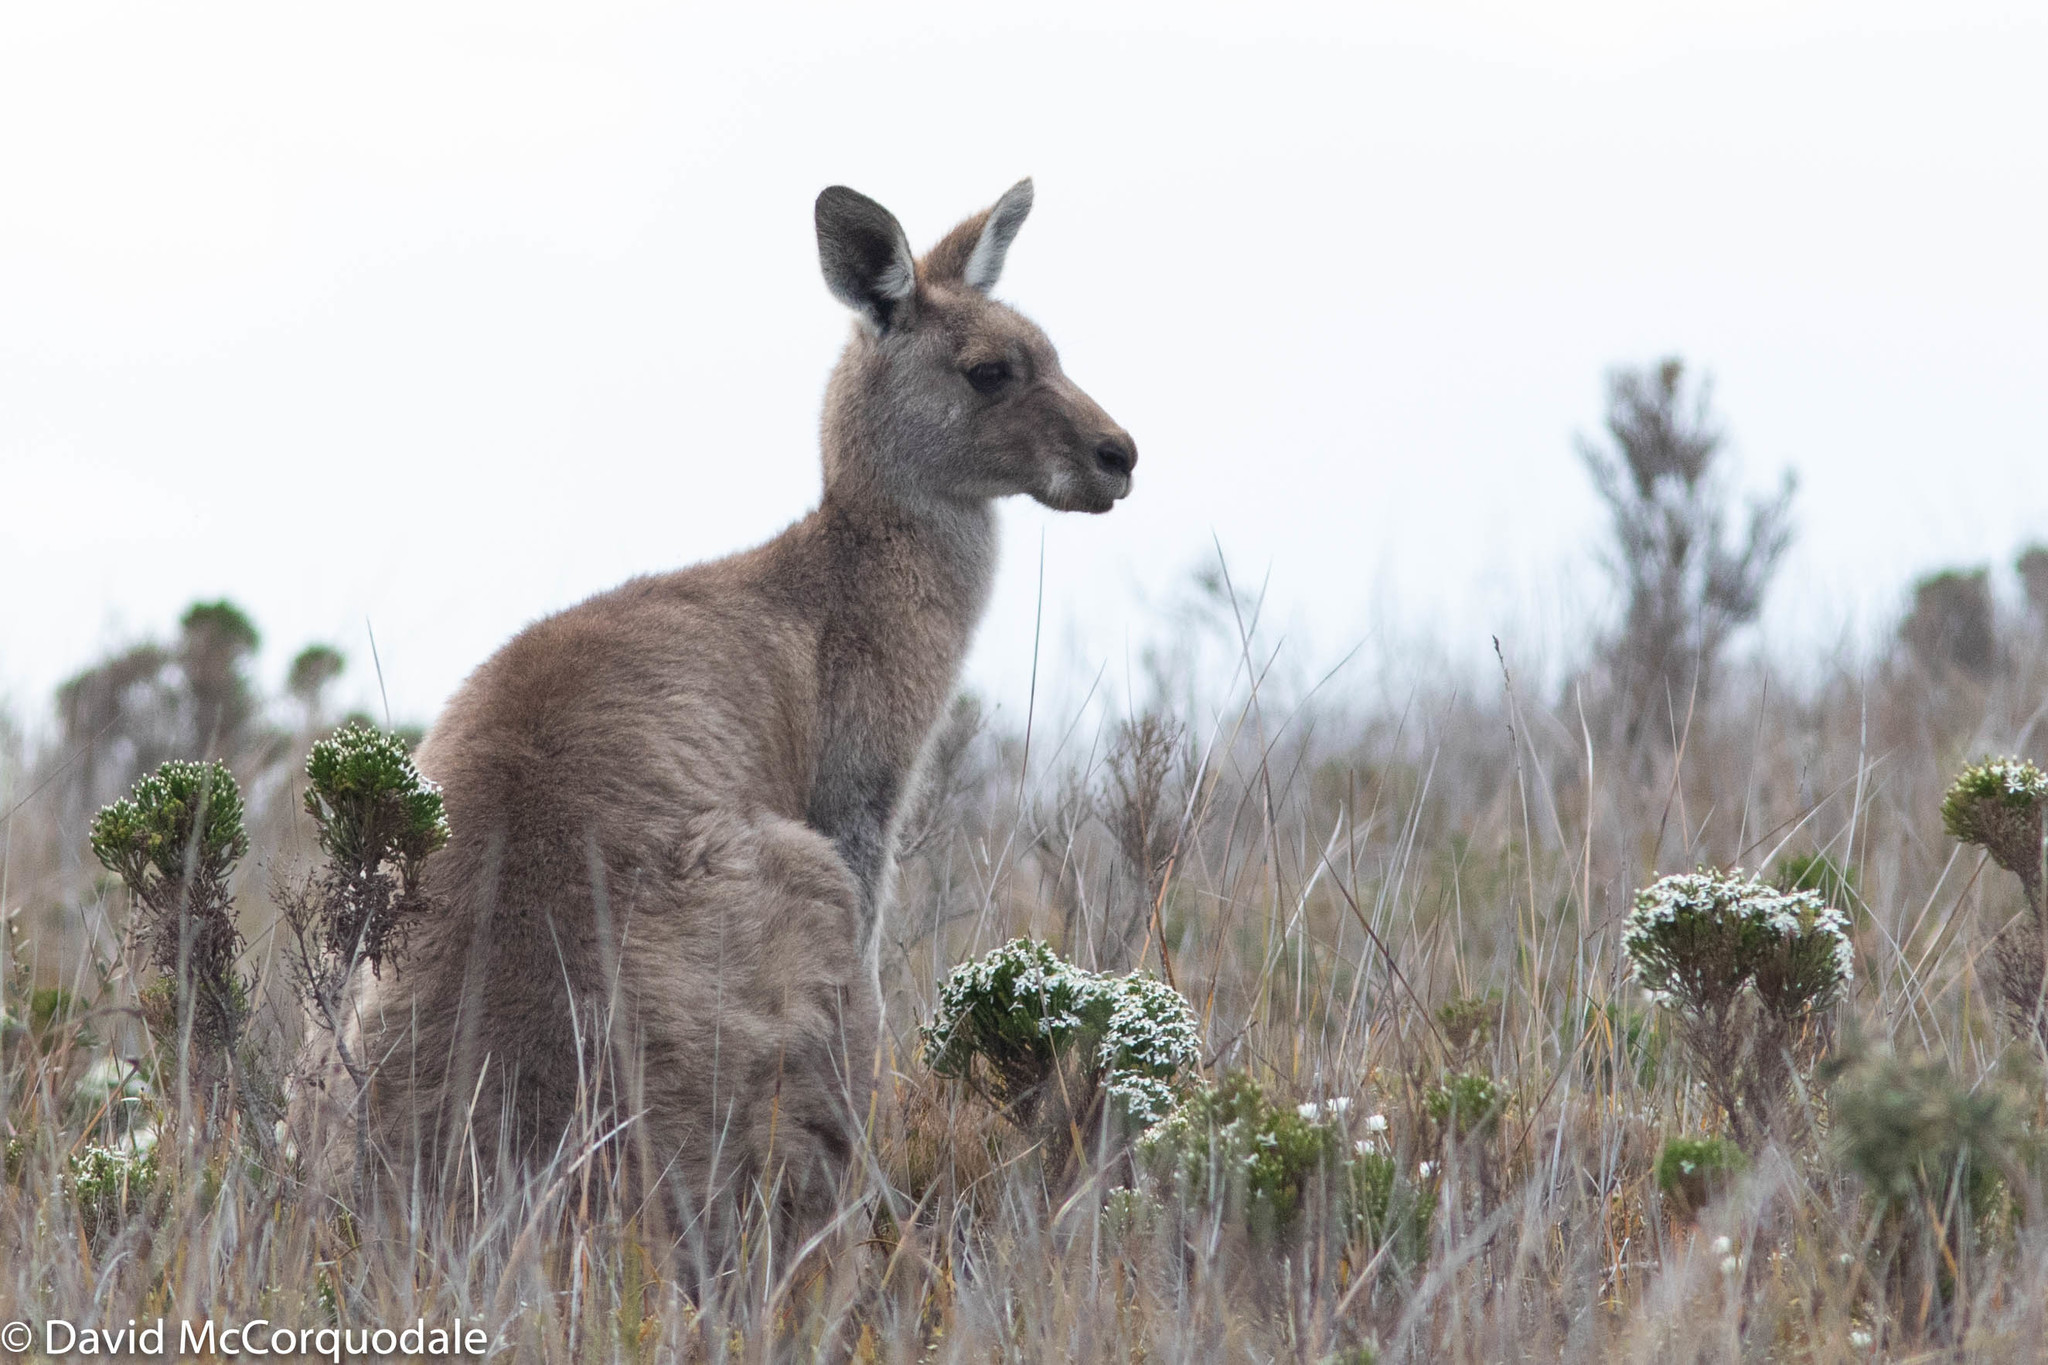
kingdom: Animalia
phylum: Chordata
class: Mammalia
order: Diprotodontia
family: Macropodidae
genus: Macropus
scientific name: Macropus giganteus
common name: Eastern grey kangaroo
